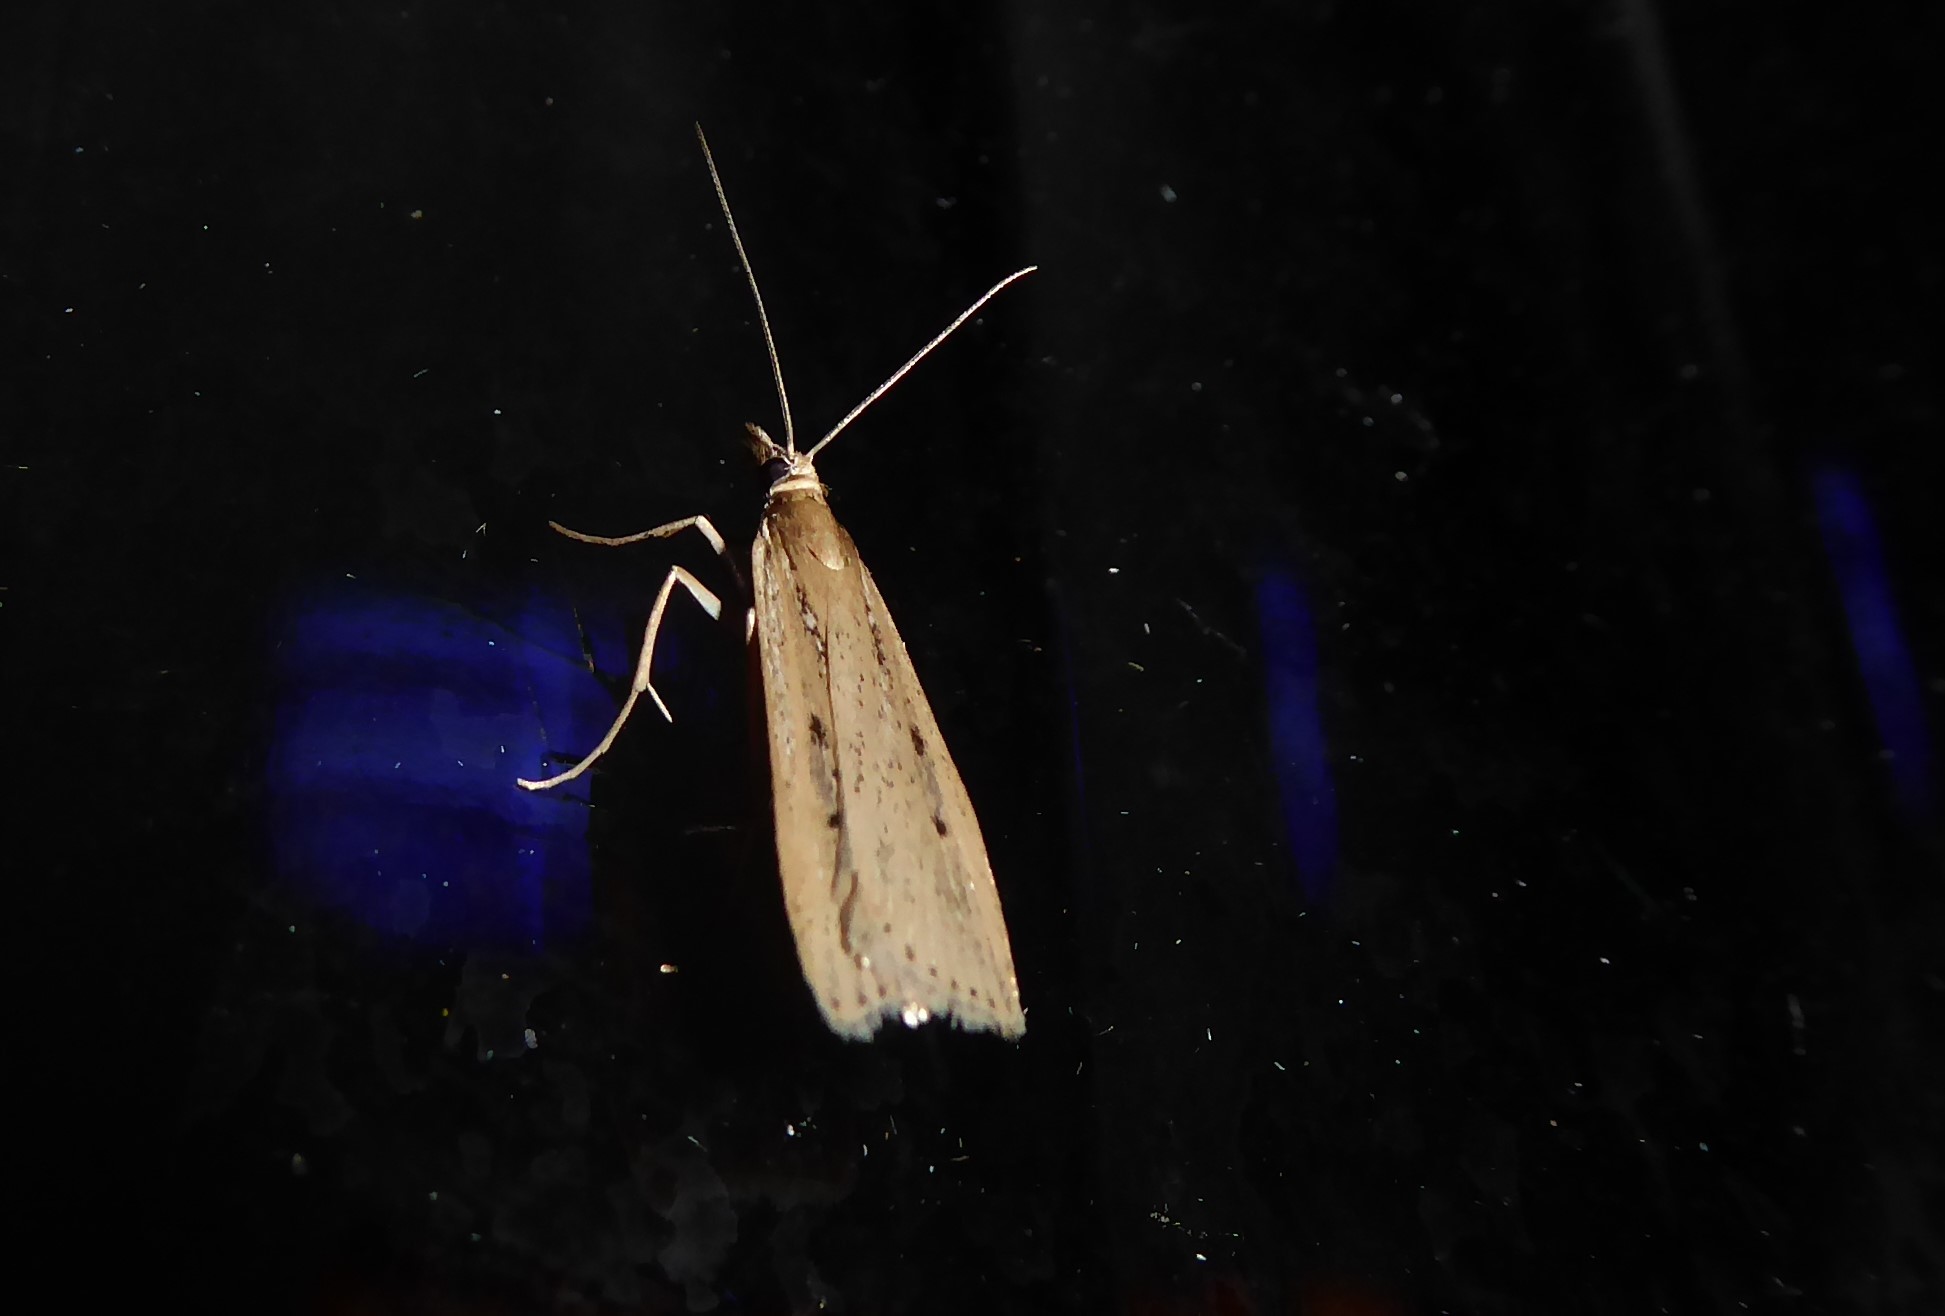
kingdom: Animalia
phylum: Arthropoda
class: Insecta
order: Lepidoptera
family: Crambidae
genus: Eudonia
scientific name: Eudonia sabulosella
